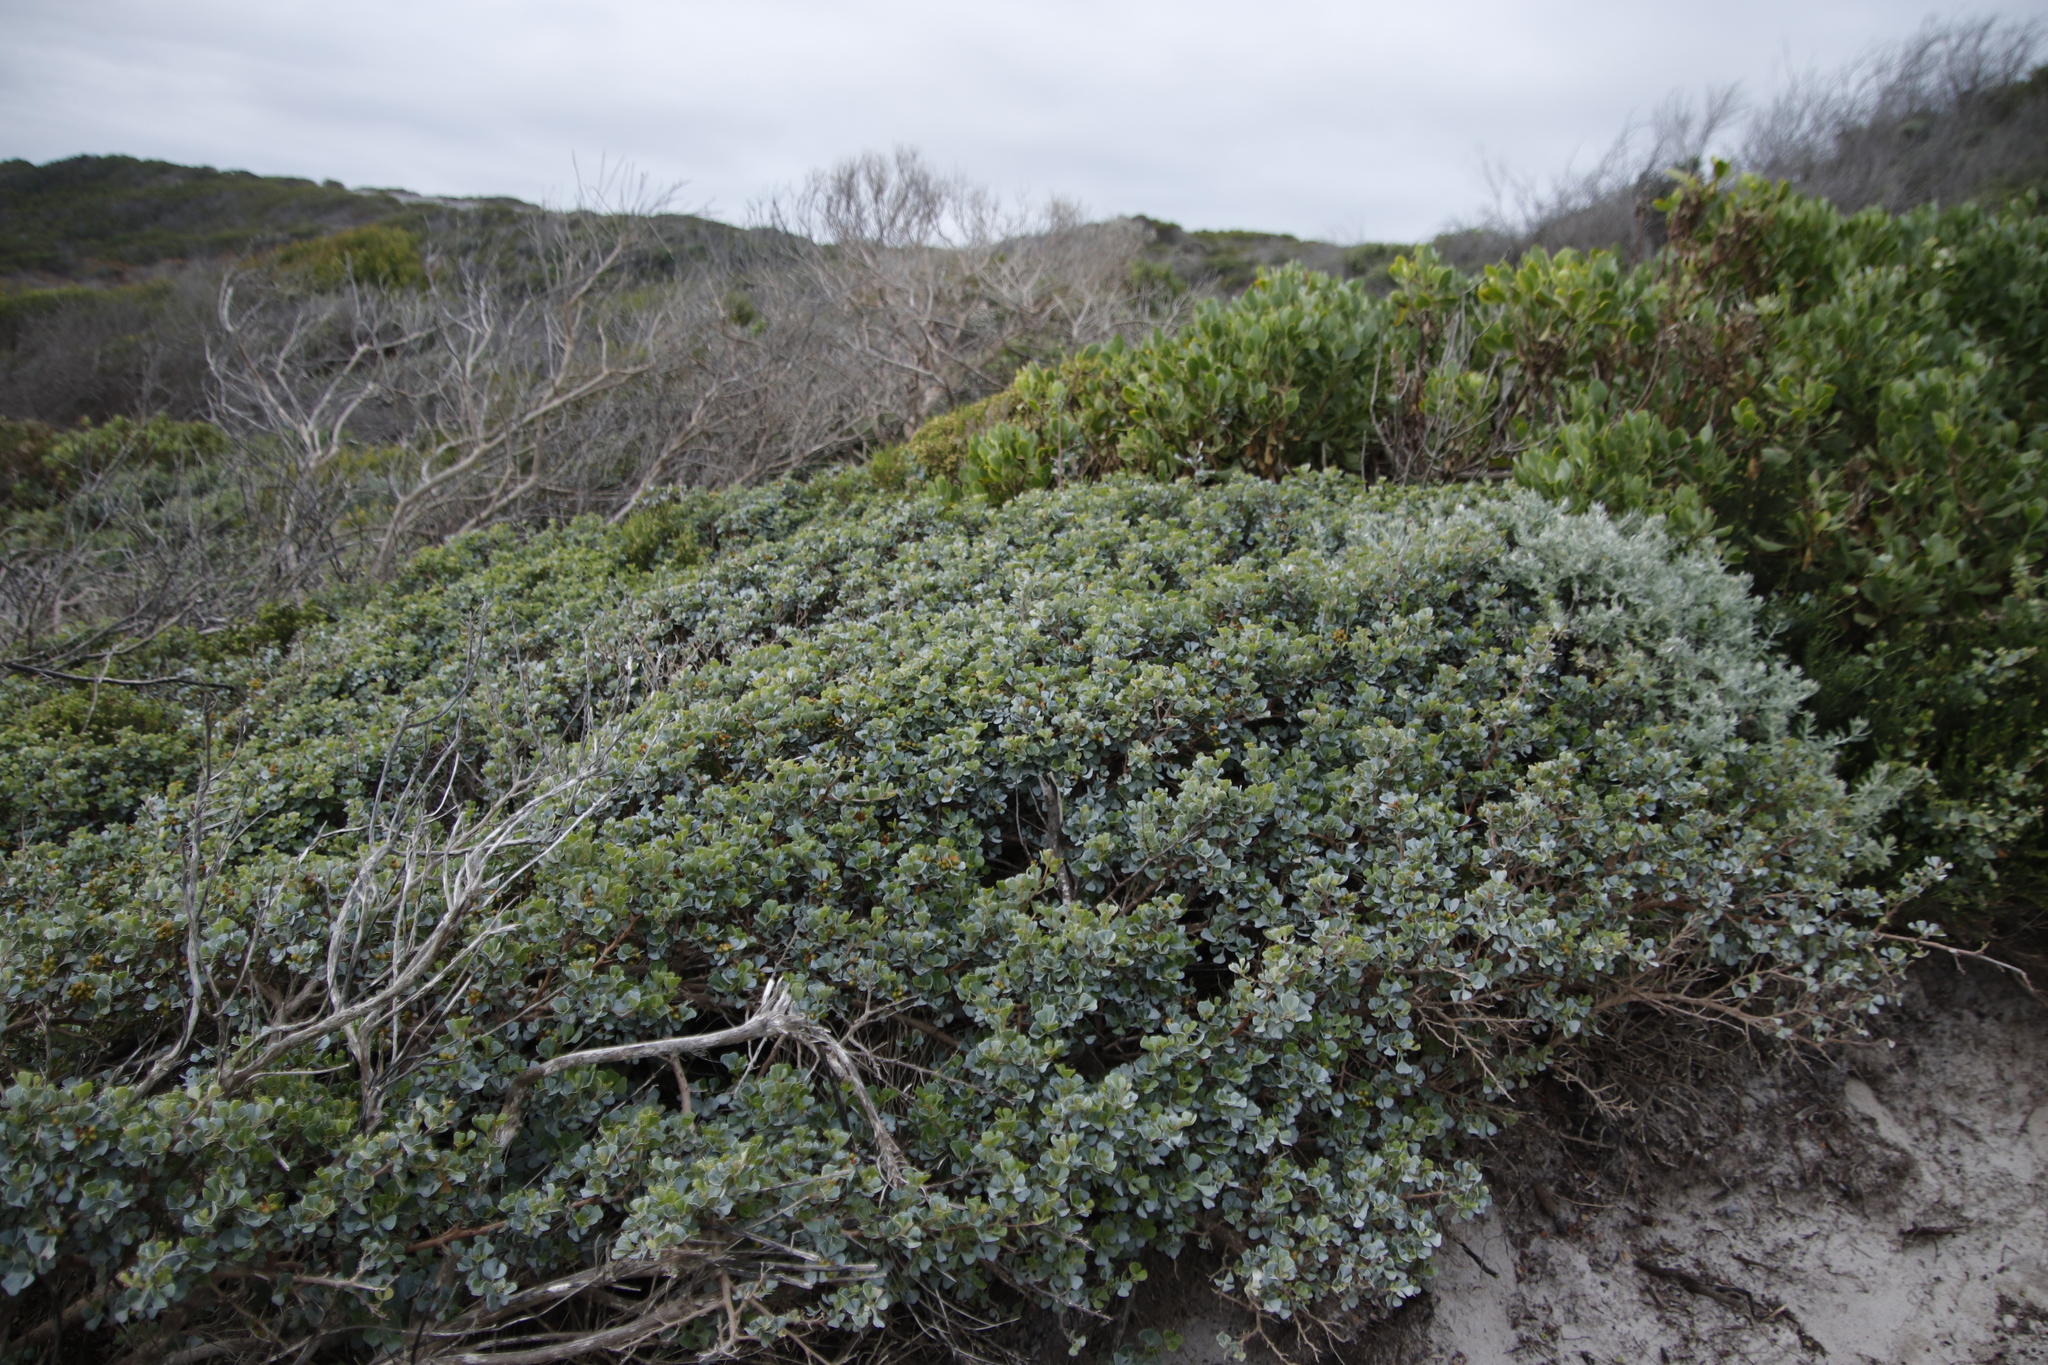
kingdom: Plantae
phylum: Tracheophyta
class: Magnoliopsida
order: Sapindales
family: Anacardiaceae
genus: Searsia
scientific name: Searsia glauca
